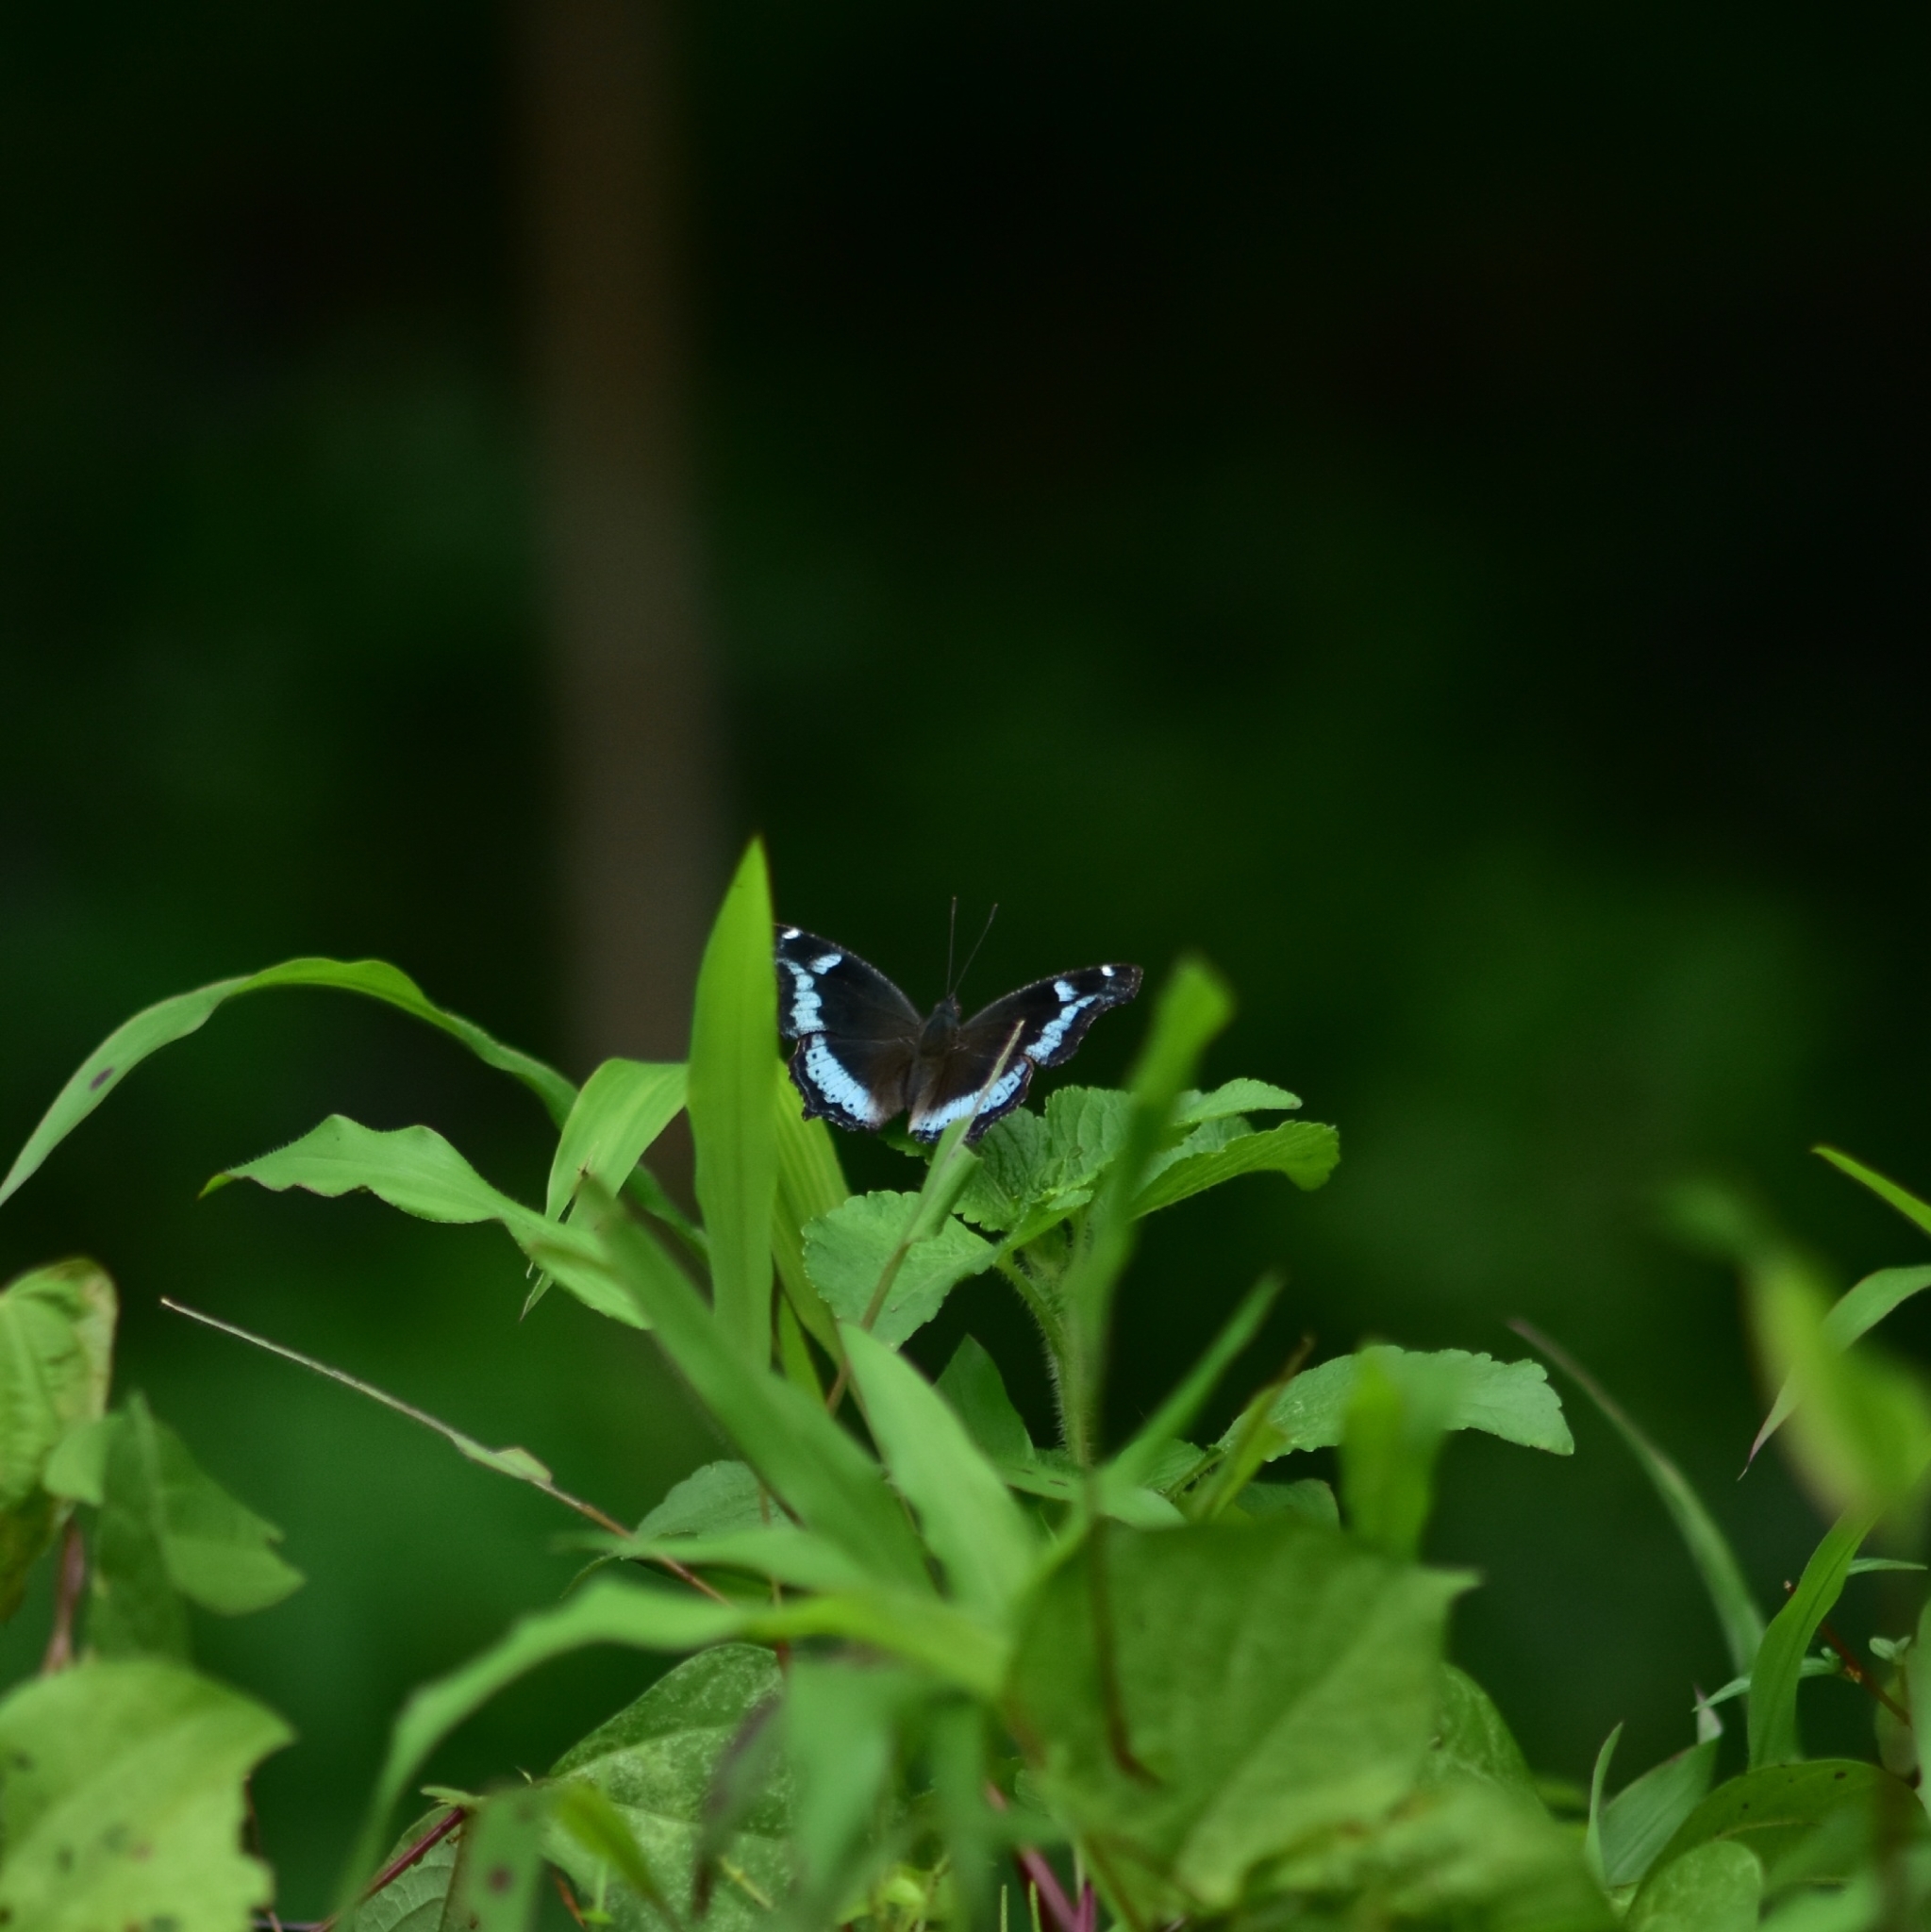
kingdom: Animalia
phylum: Arthropoda
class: Insecta
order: Lepidoptera
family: Nymphalidae
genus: Vanessa
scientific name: Vanessa Kaniska canace
